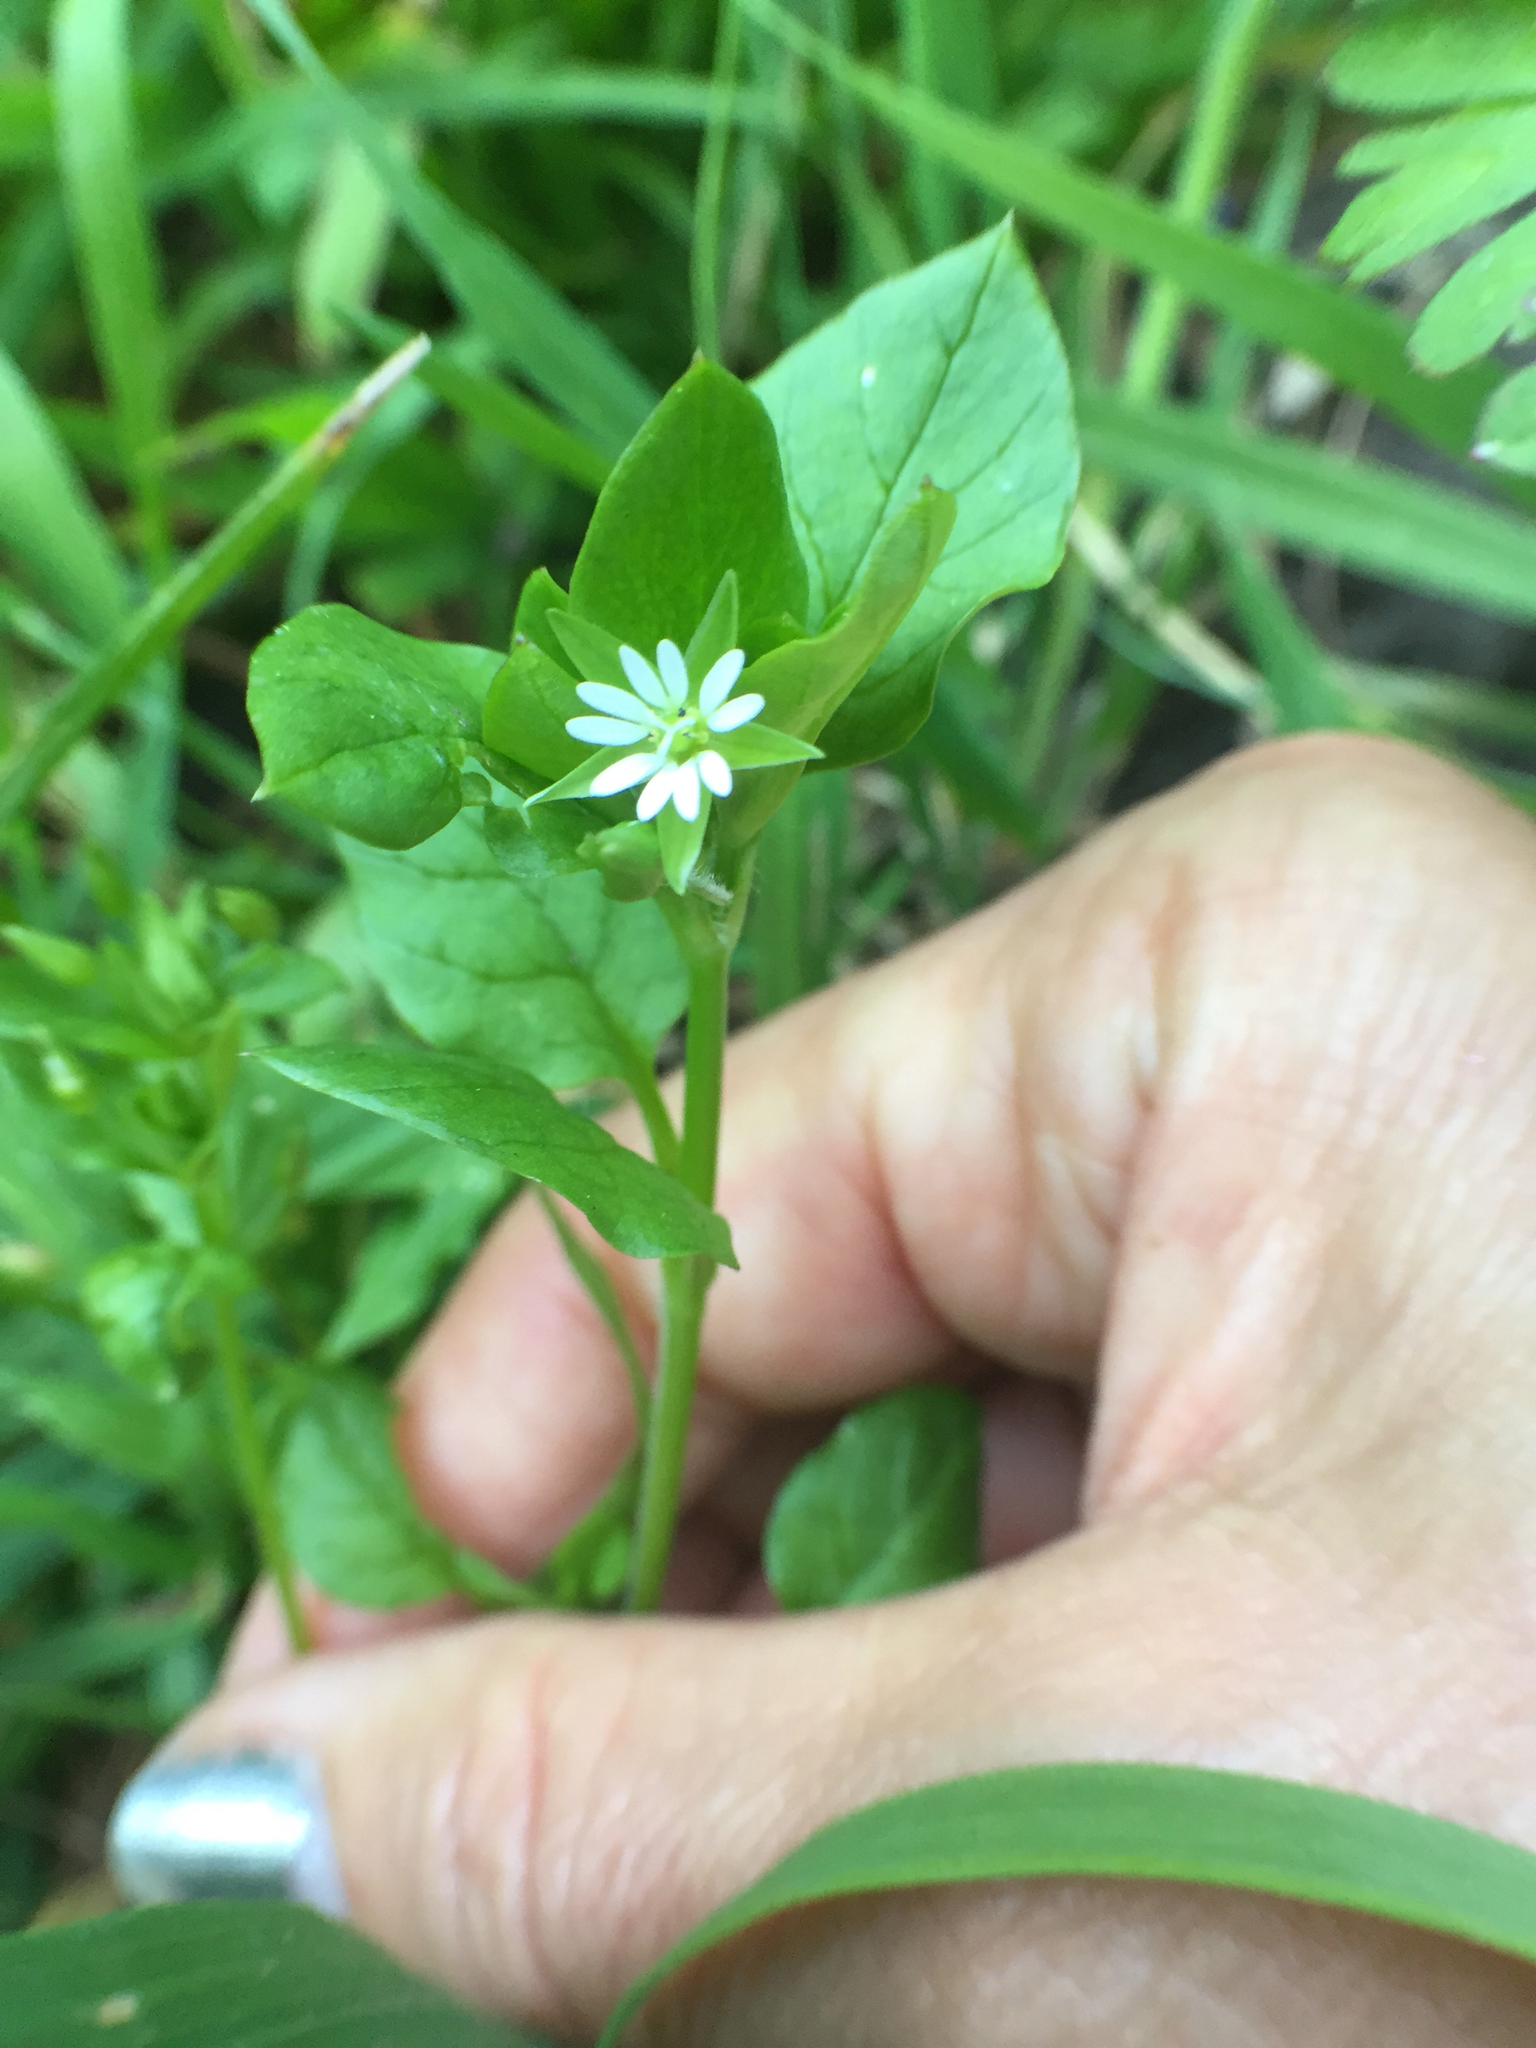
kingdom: Plantae
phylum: Tracheophyta
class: Magnoliopsida
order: Caryophyllales
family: Caryophyllaceae
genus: Stellaria
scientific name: Stellaria media
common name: Common chickweed
